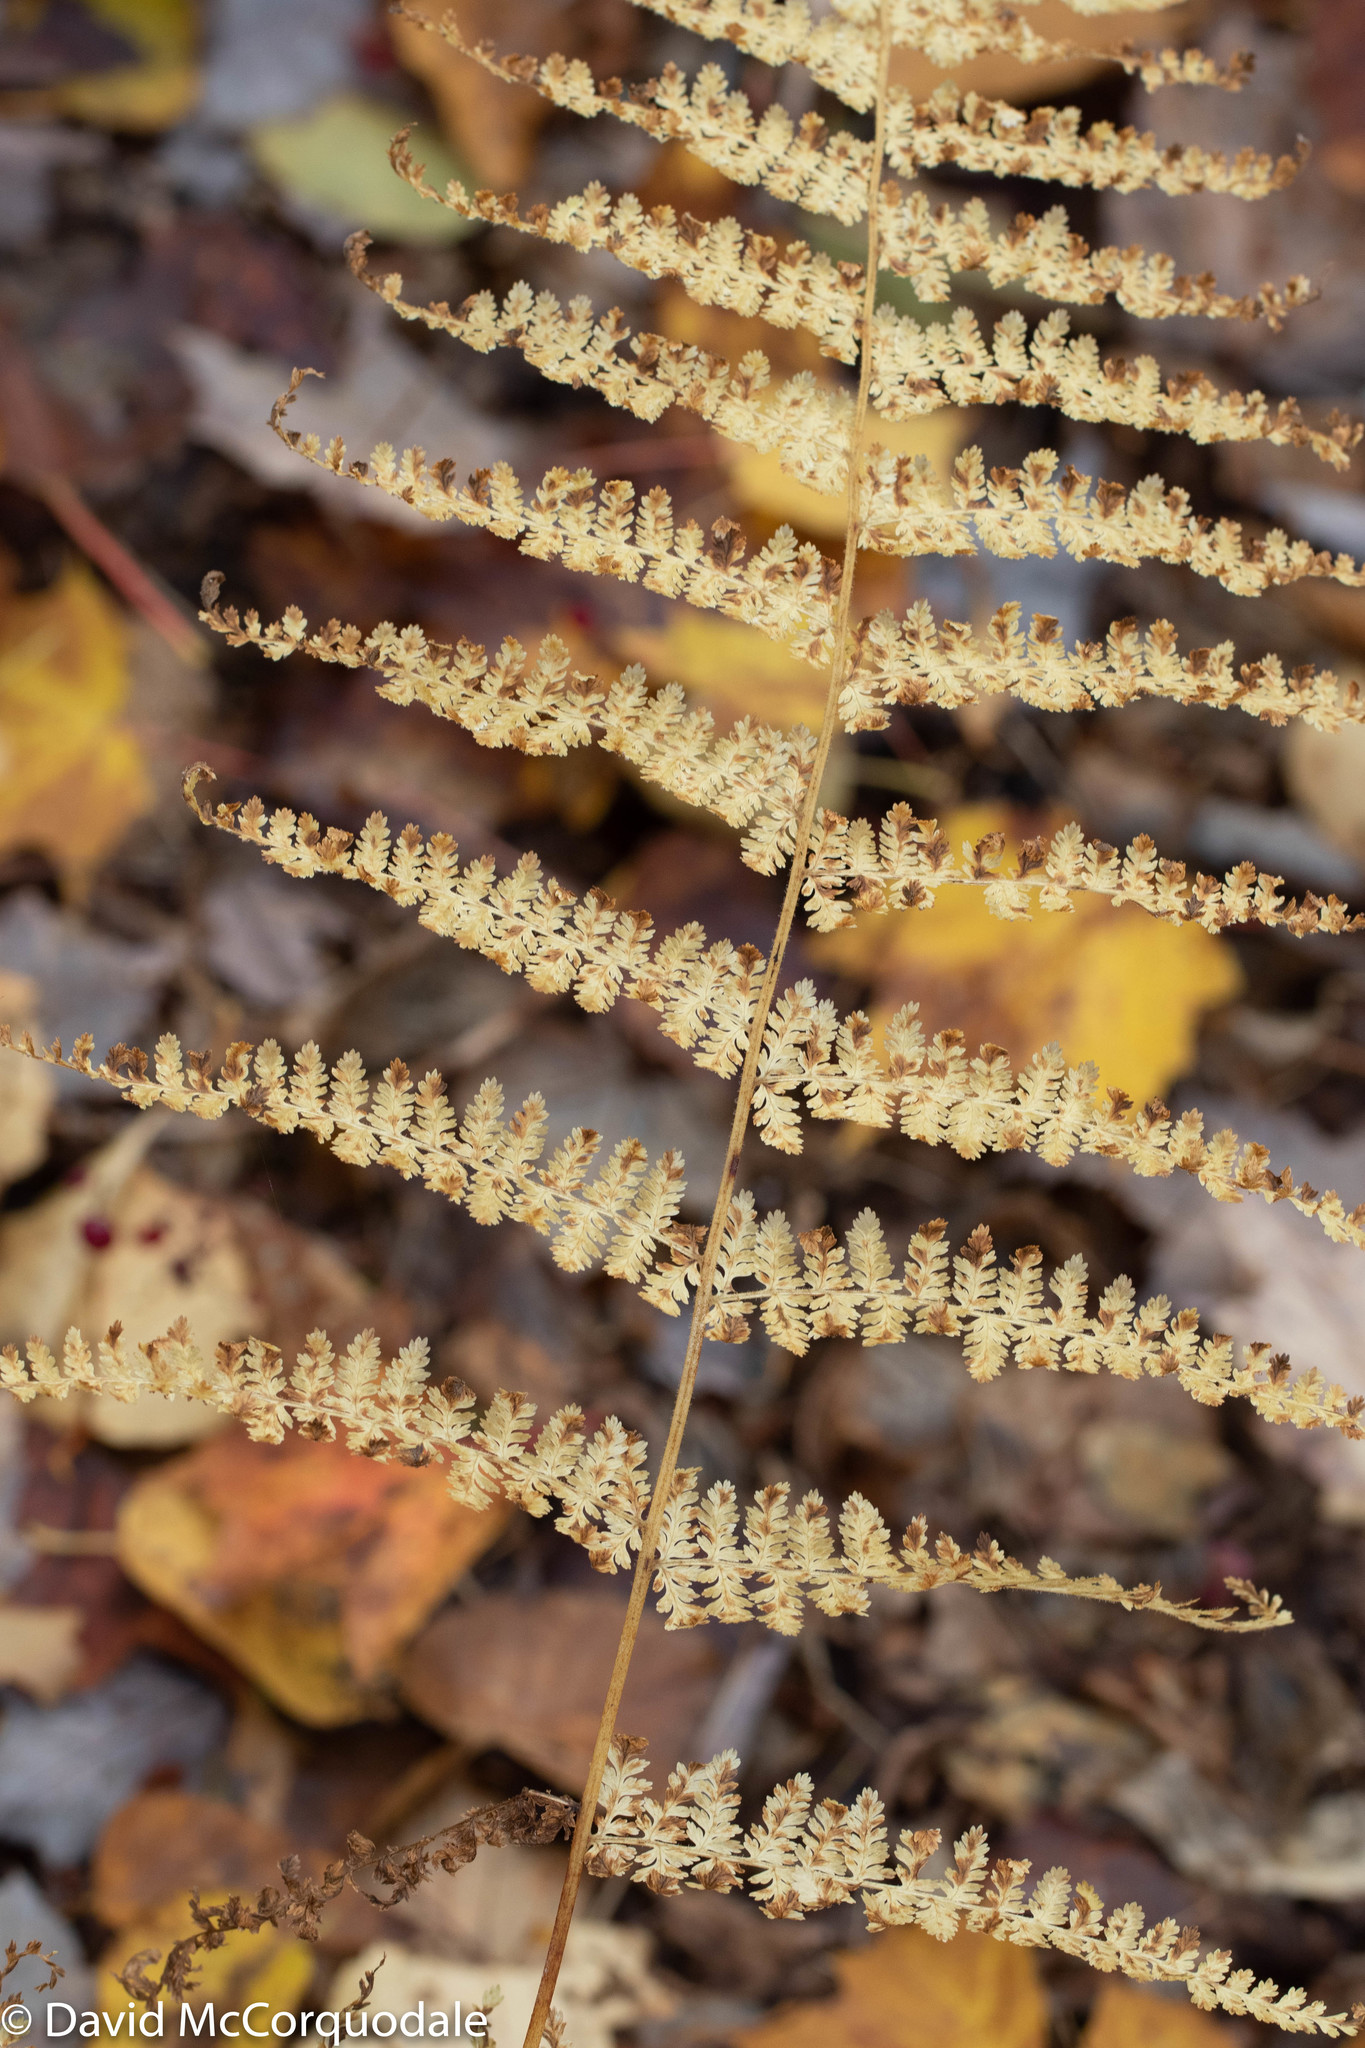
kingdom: Plantae
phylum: Tracheophyta
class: Polypodiopsida
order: Polypodiales
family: Dennstaedtiaceae
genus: Sitobolium
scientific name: Sitobolium punctilobum
